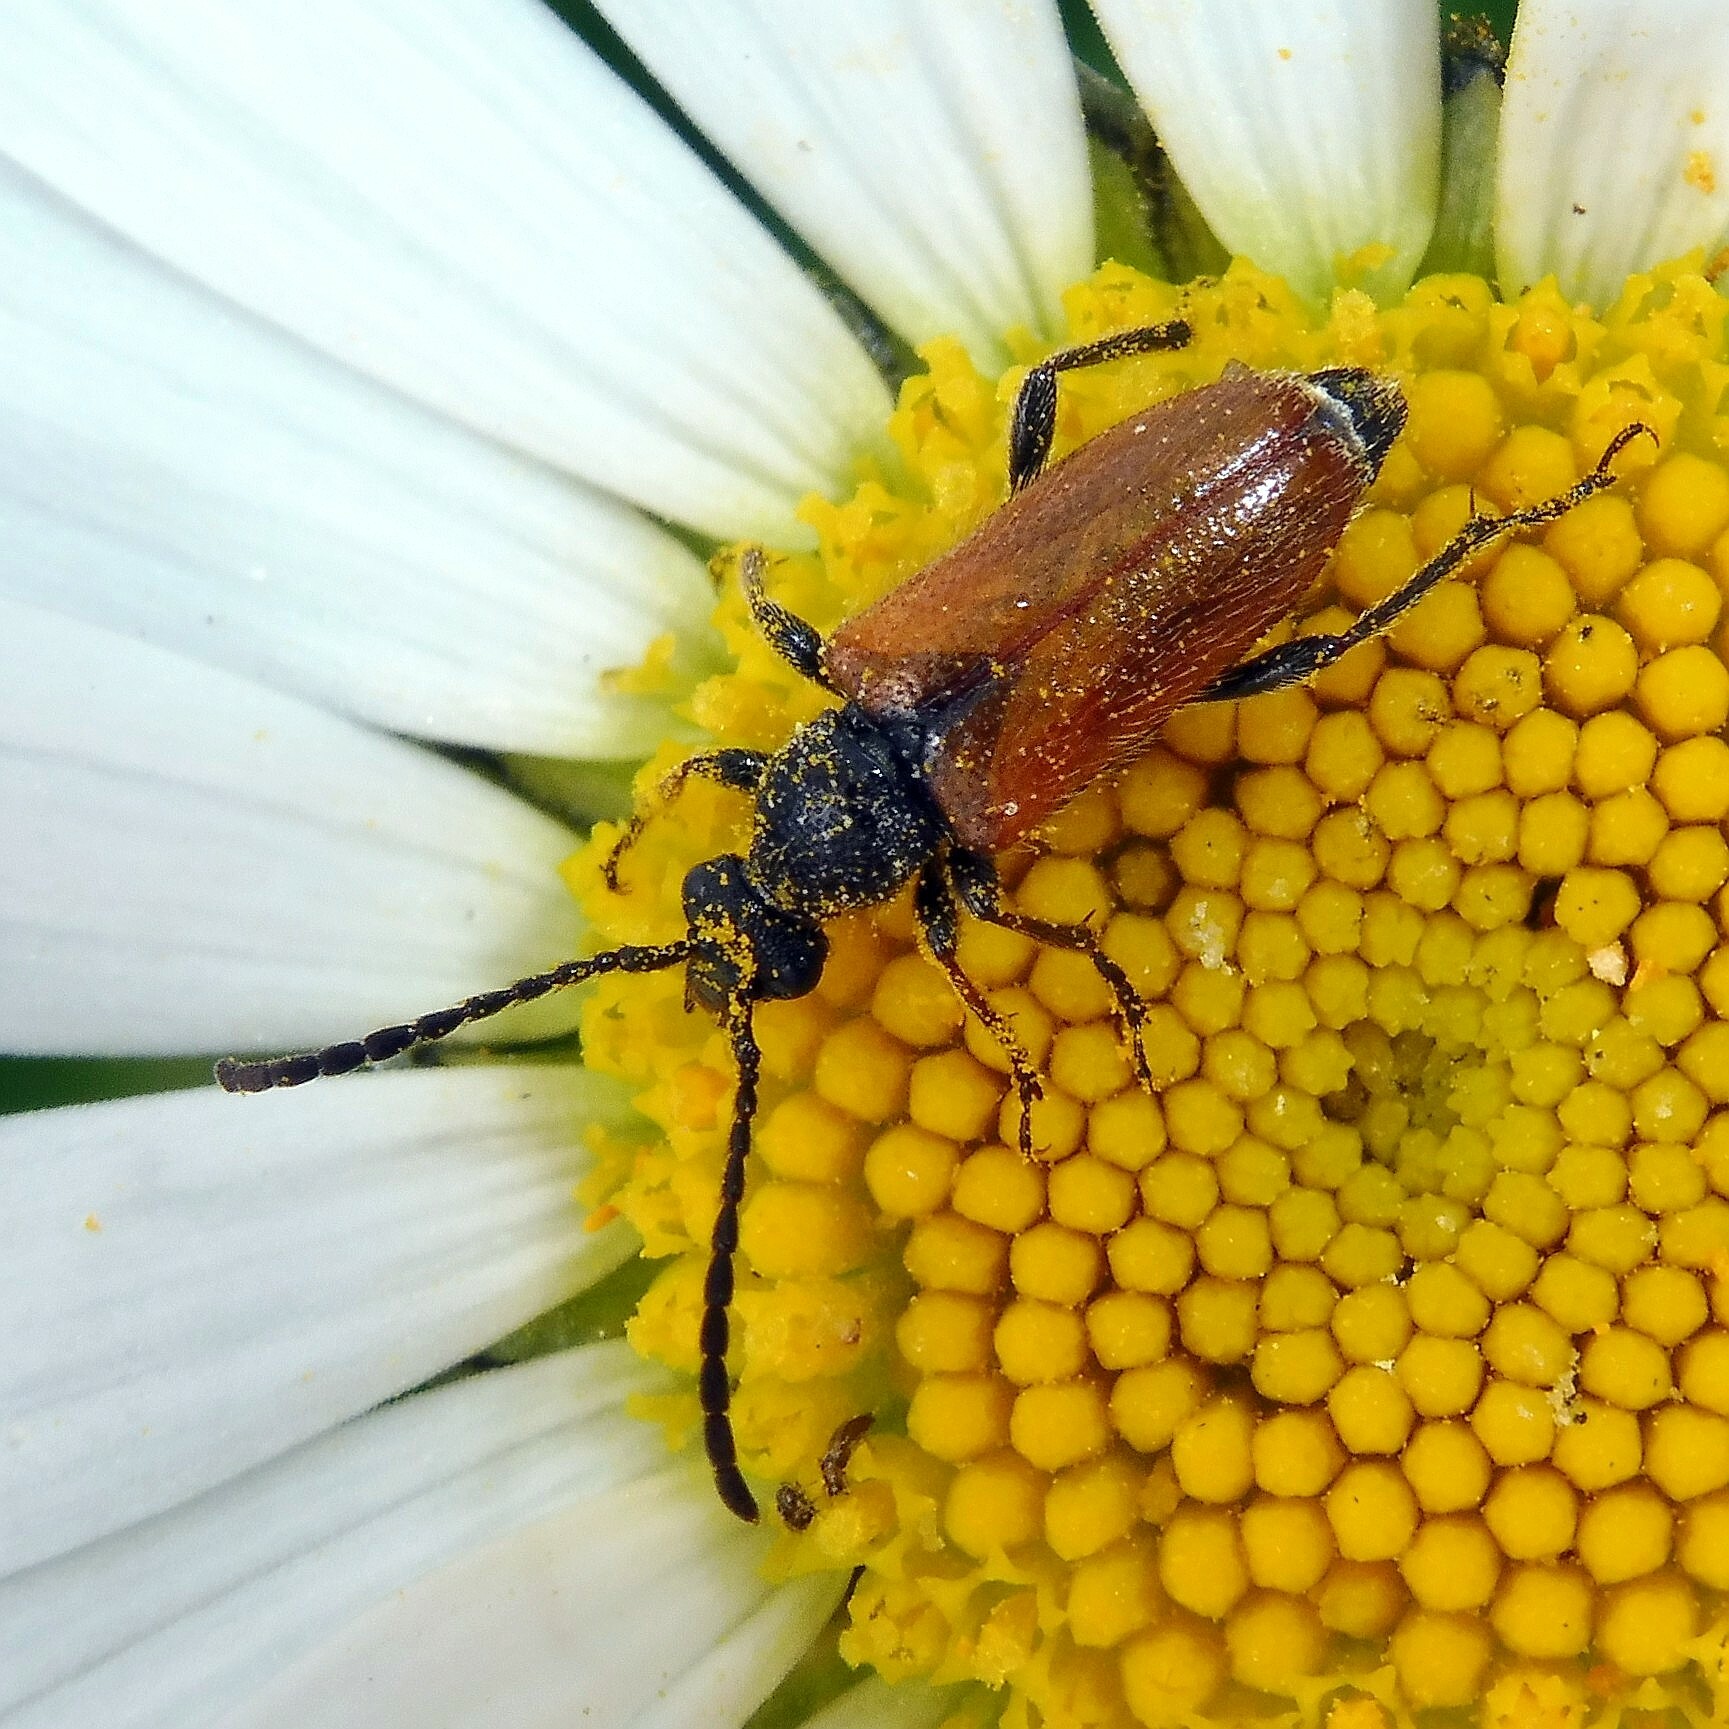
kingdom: Animalia
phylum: Arthropoda
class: Insecta
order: Coleoptera
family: Cerambycidae
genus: Pseudovadonia
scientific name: Pseudovadonia livida
